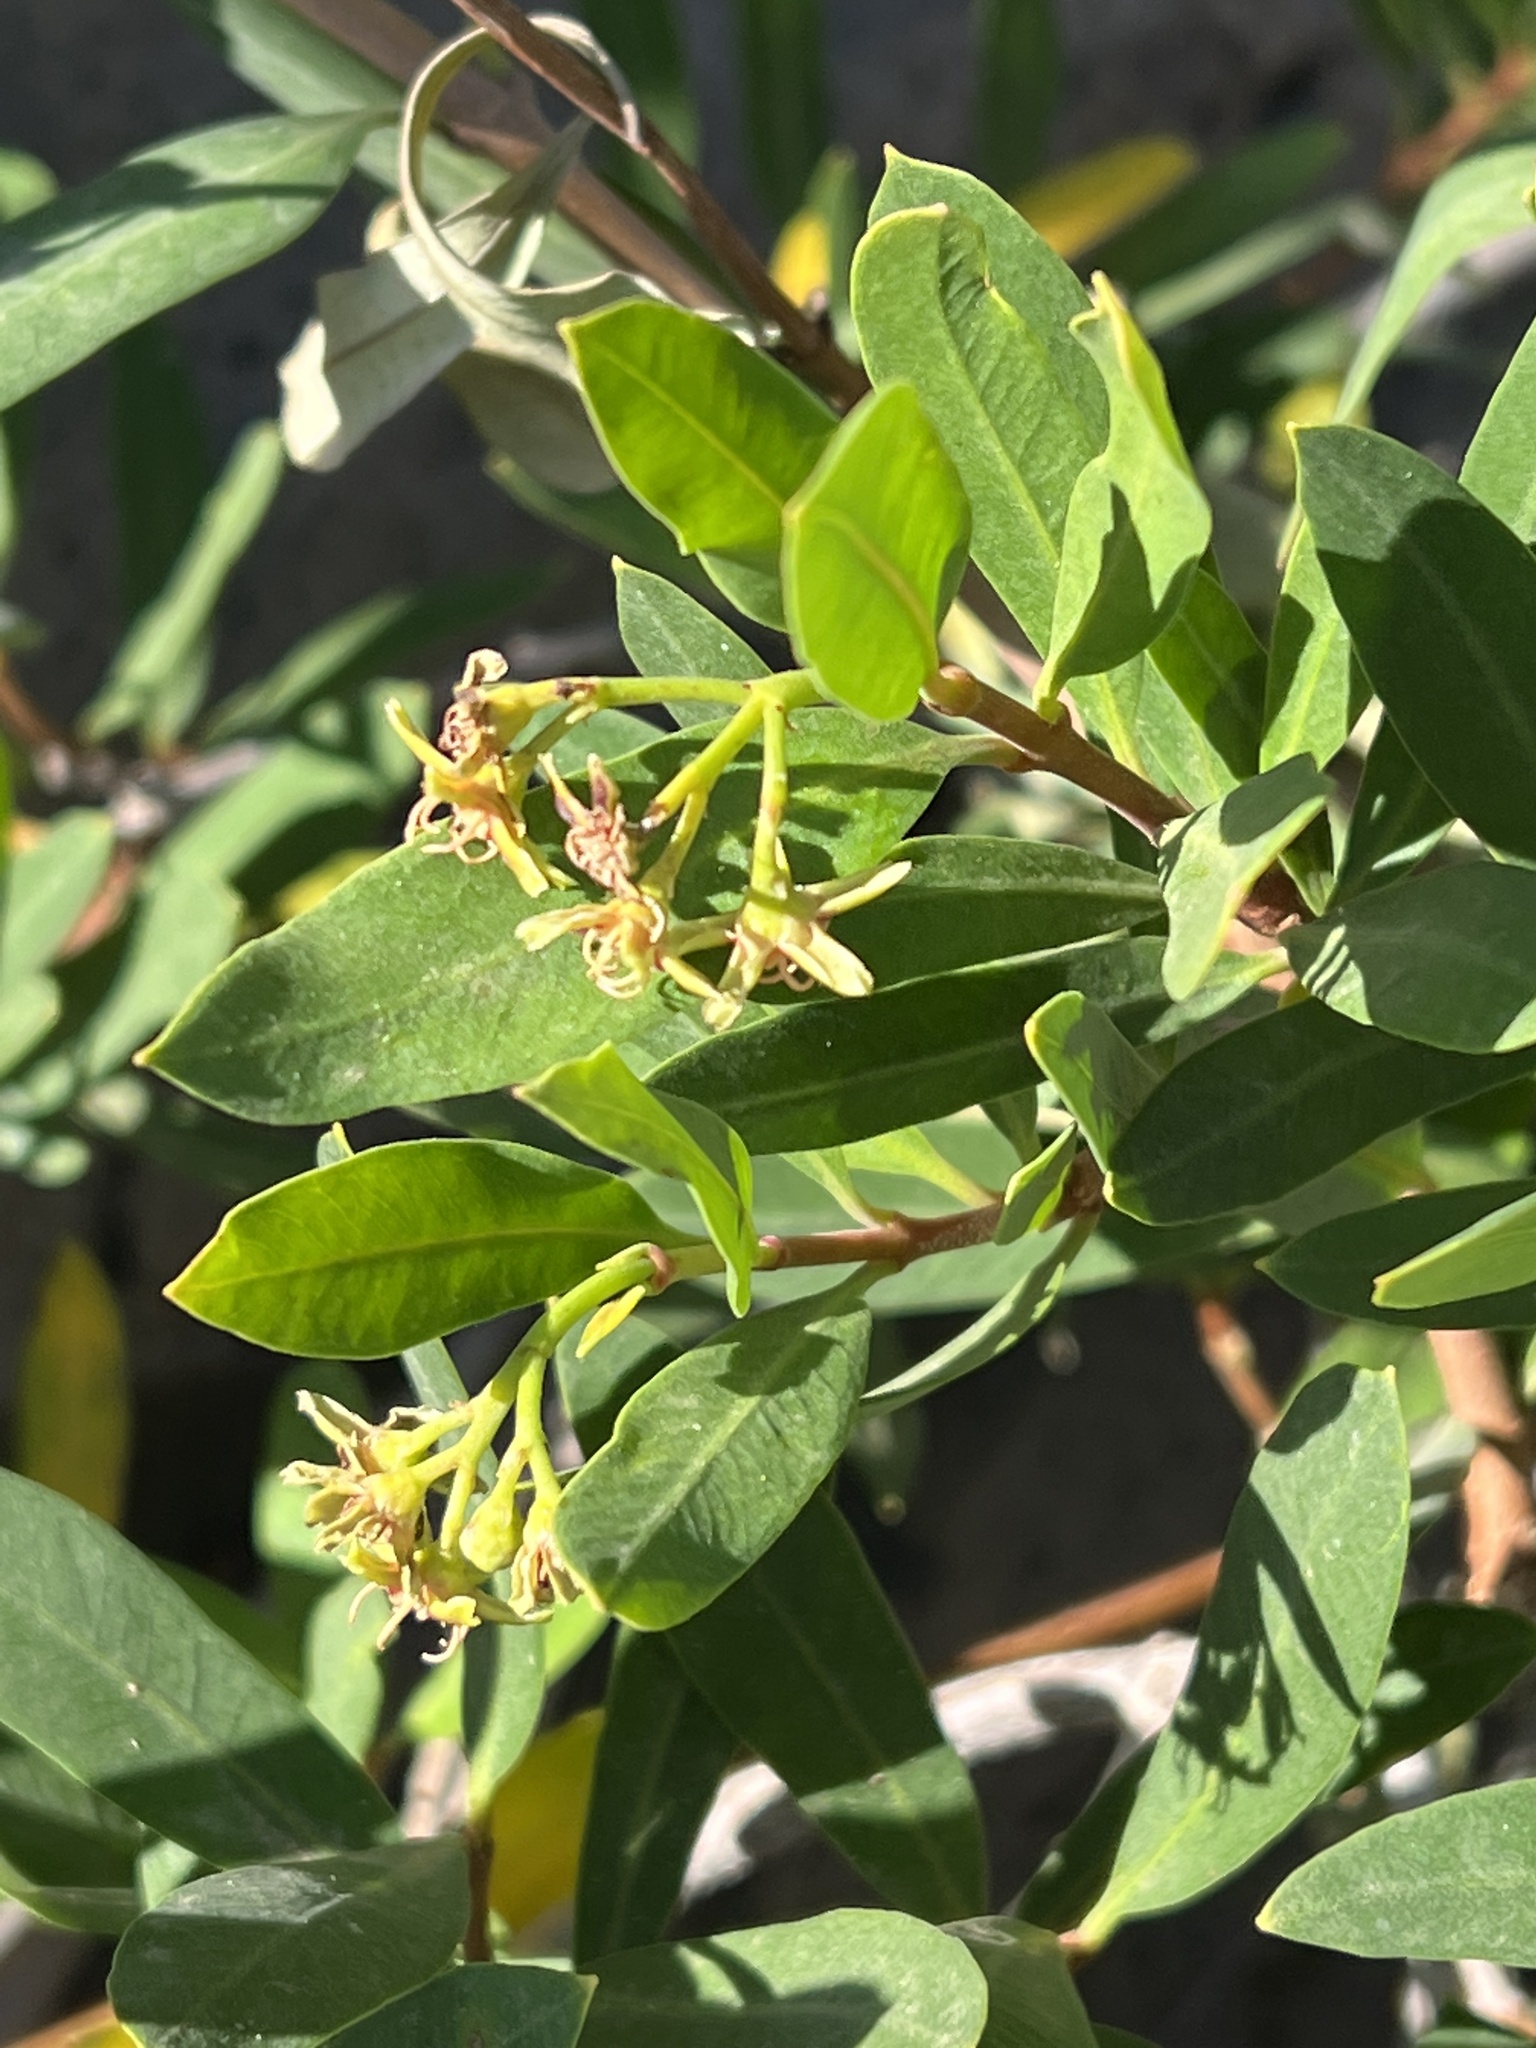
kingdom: Plantae
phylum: Tracheophyta
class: Magnoliopsida
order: Gentianales
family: Apocynaceae
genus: Periploca
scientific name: Periploca laevigata
